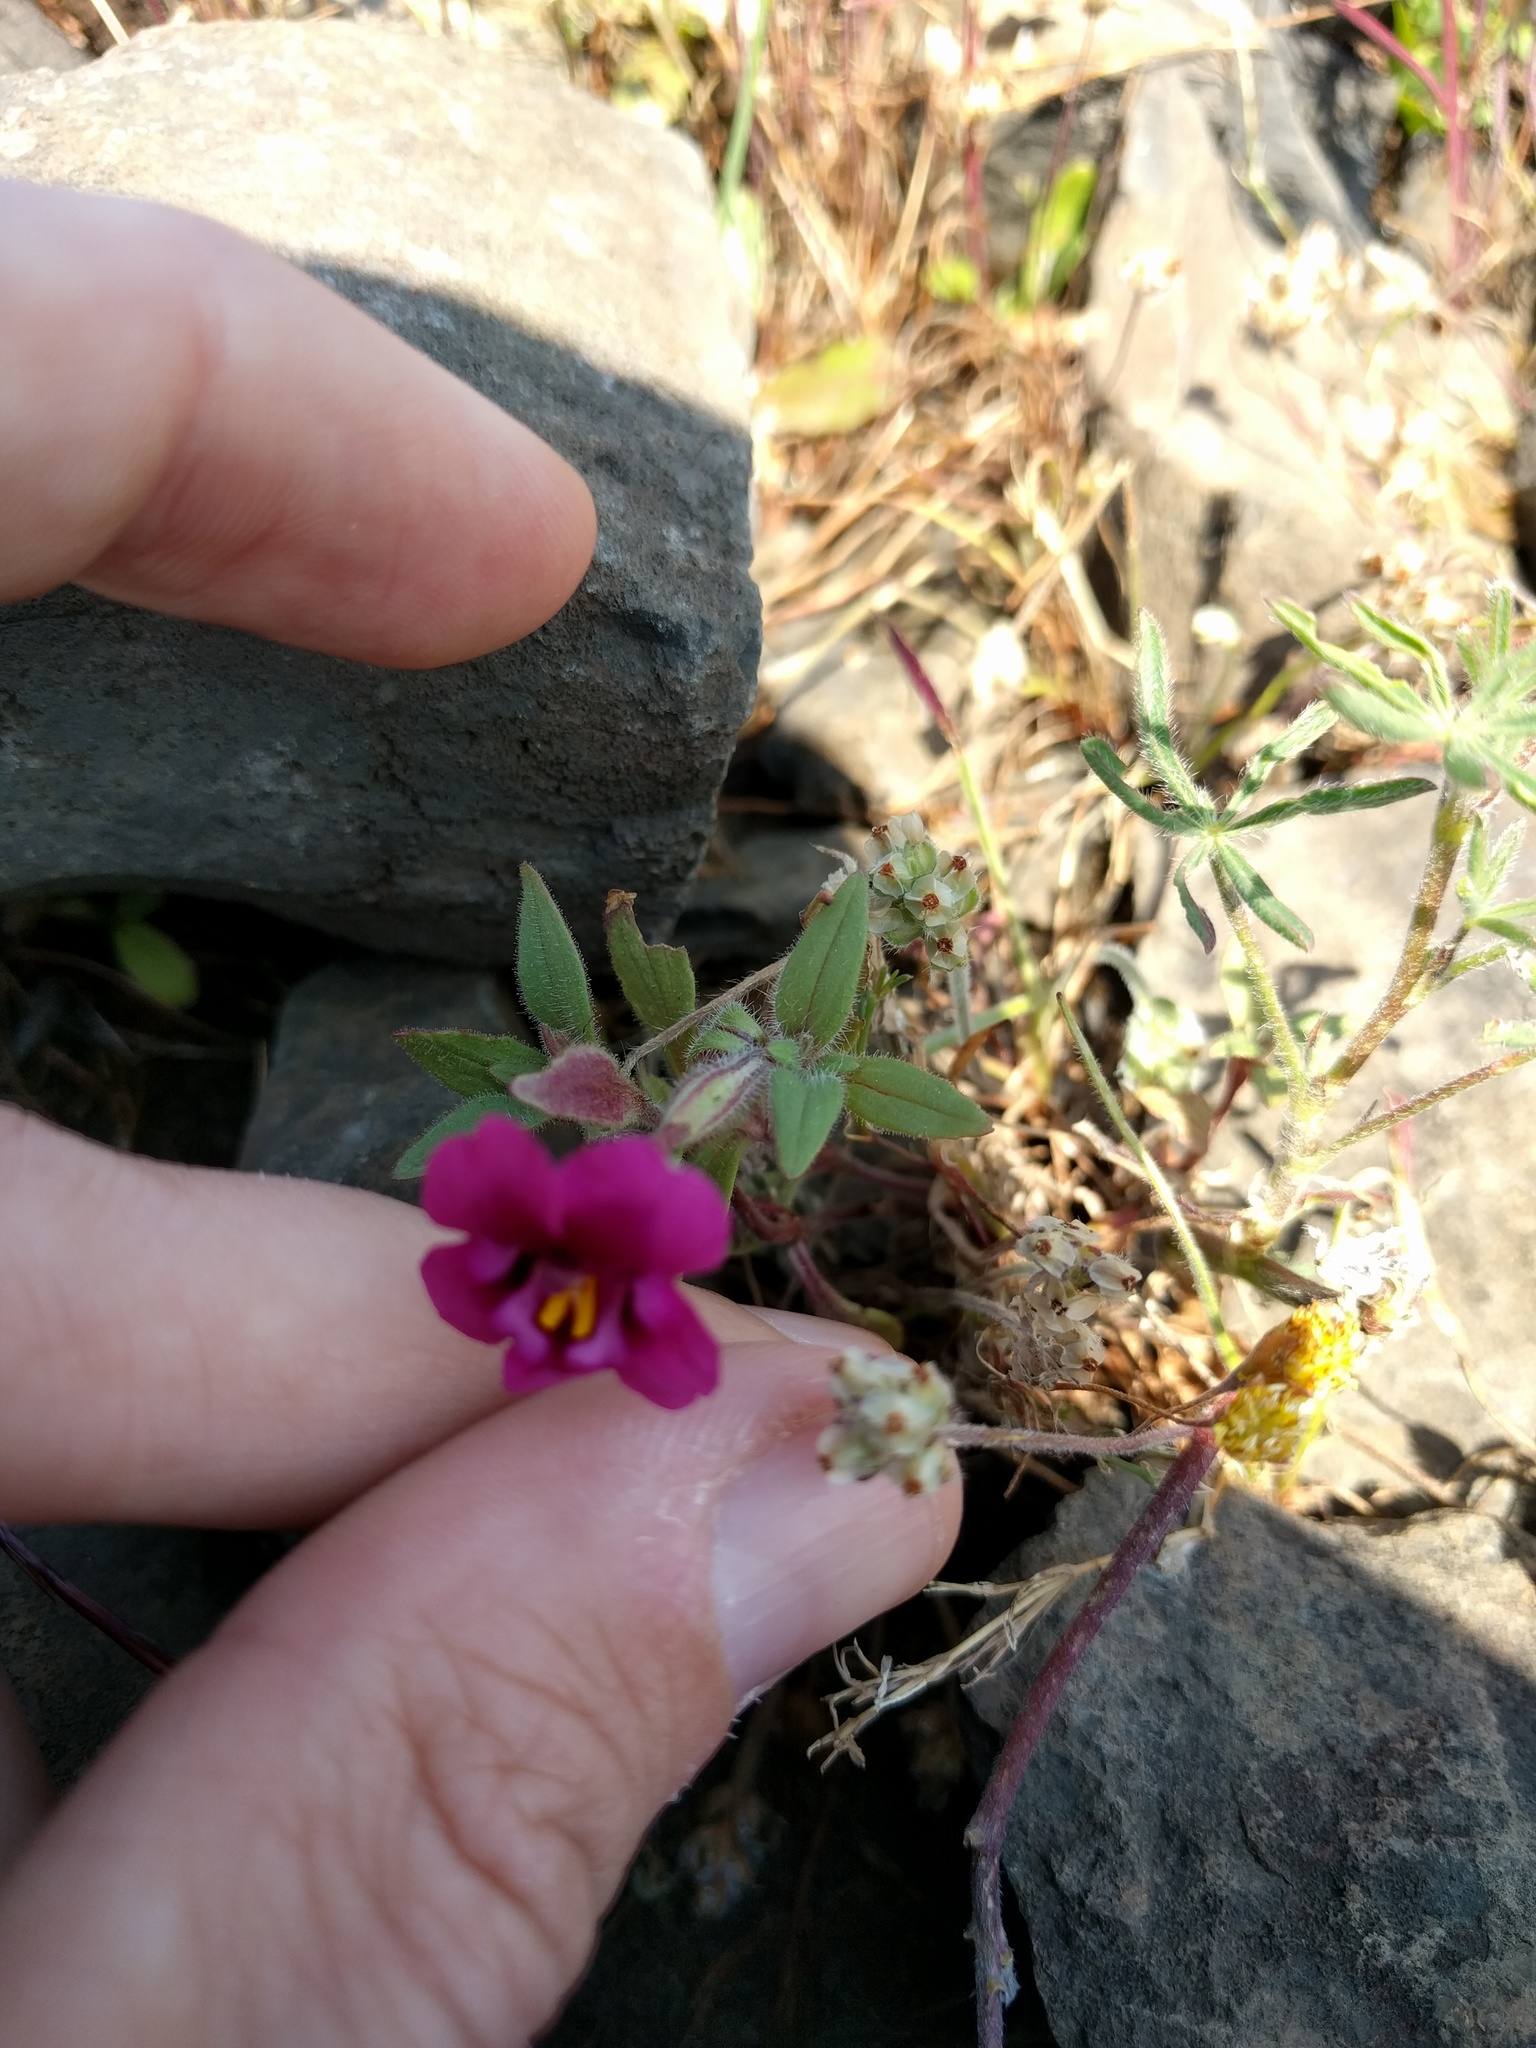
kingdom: Plantae
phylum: Tracheophyta
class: Magnoliopsida
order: Lamiales
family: Phrymaceae
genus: Diplacus
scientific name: Diplacus kelloggii
